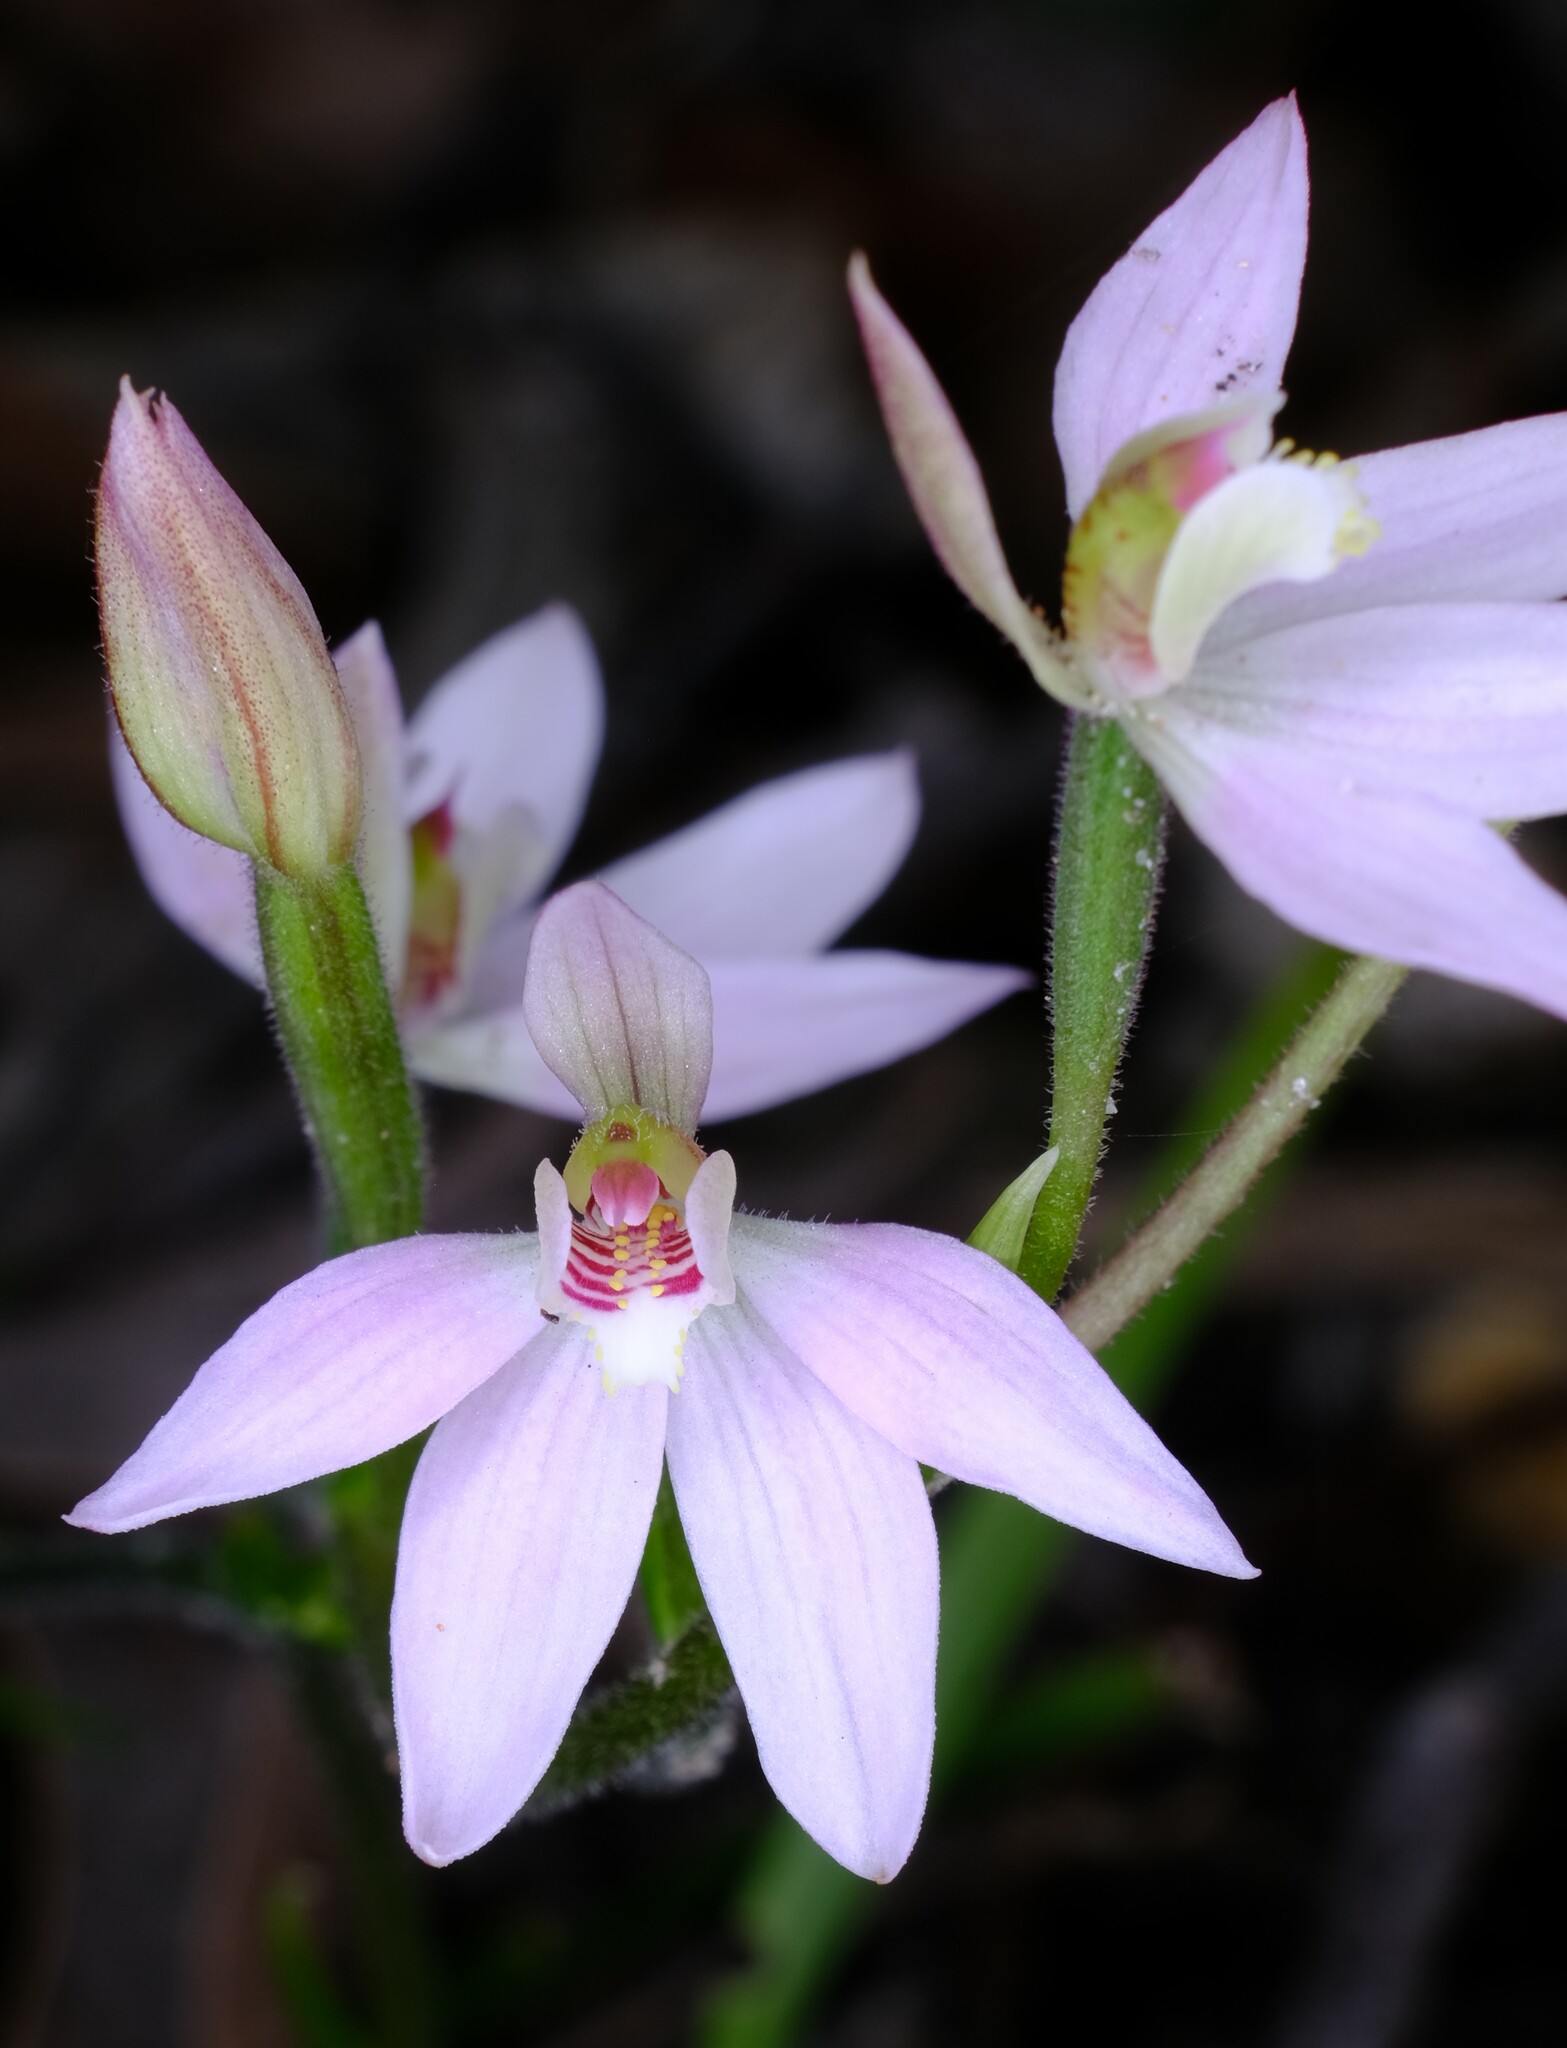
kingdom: Plantae
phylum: Tracheophyta
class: Liliopsida
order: Asparagales
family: Orchidaceae
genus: Caladenia
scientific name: Caladenia carnea
